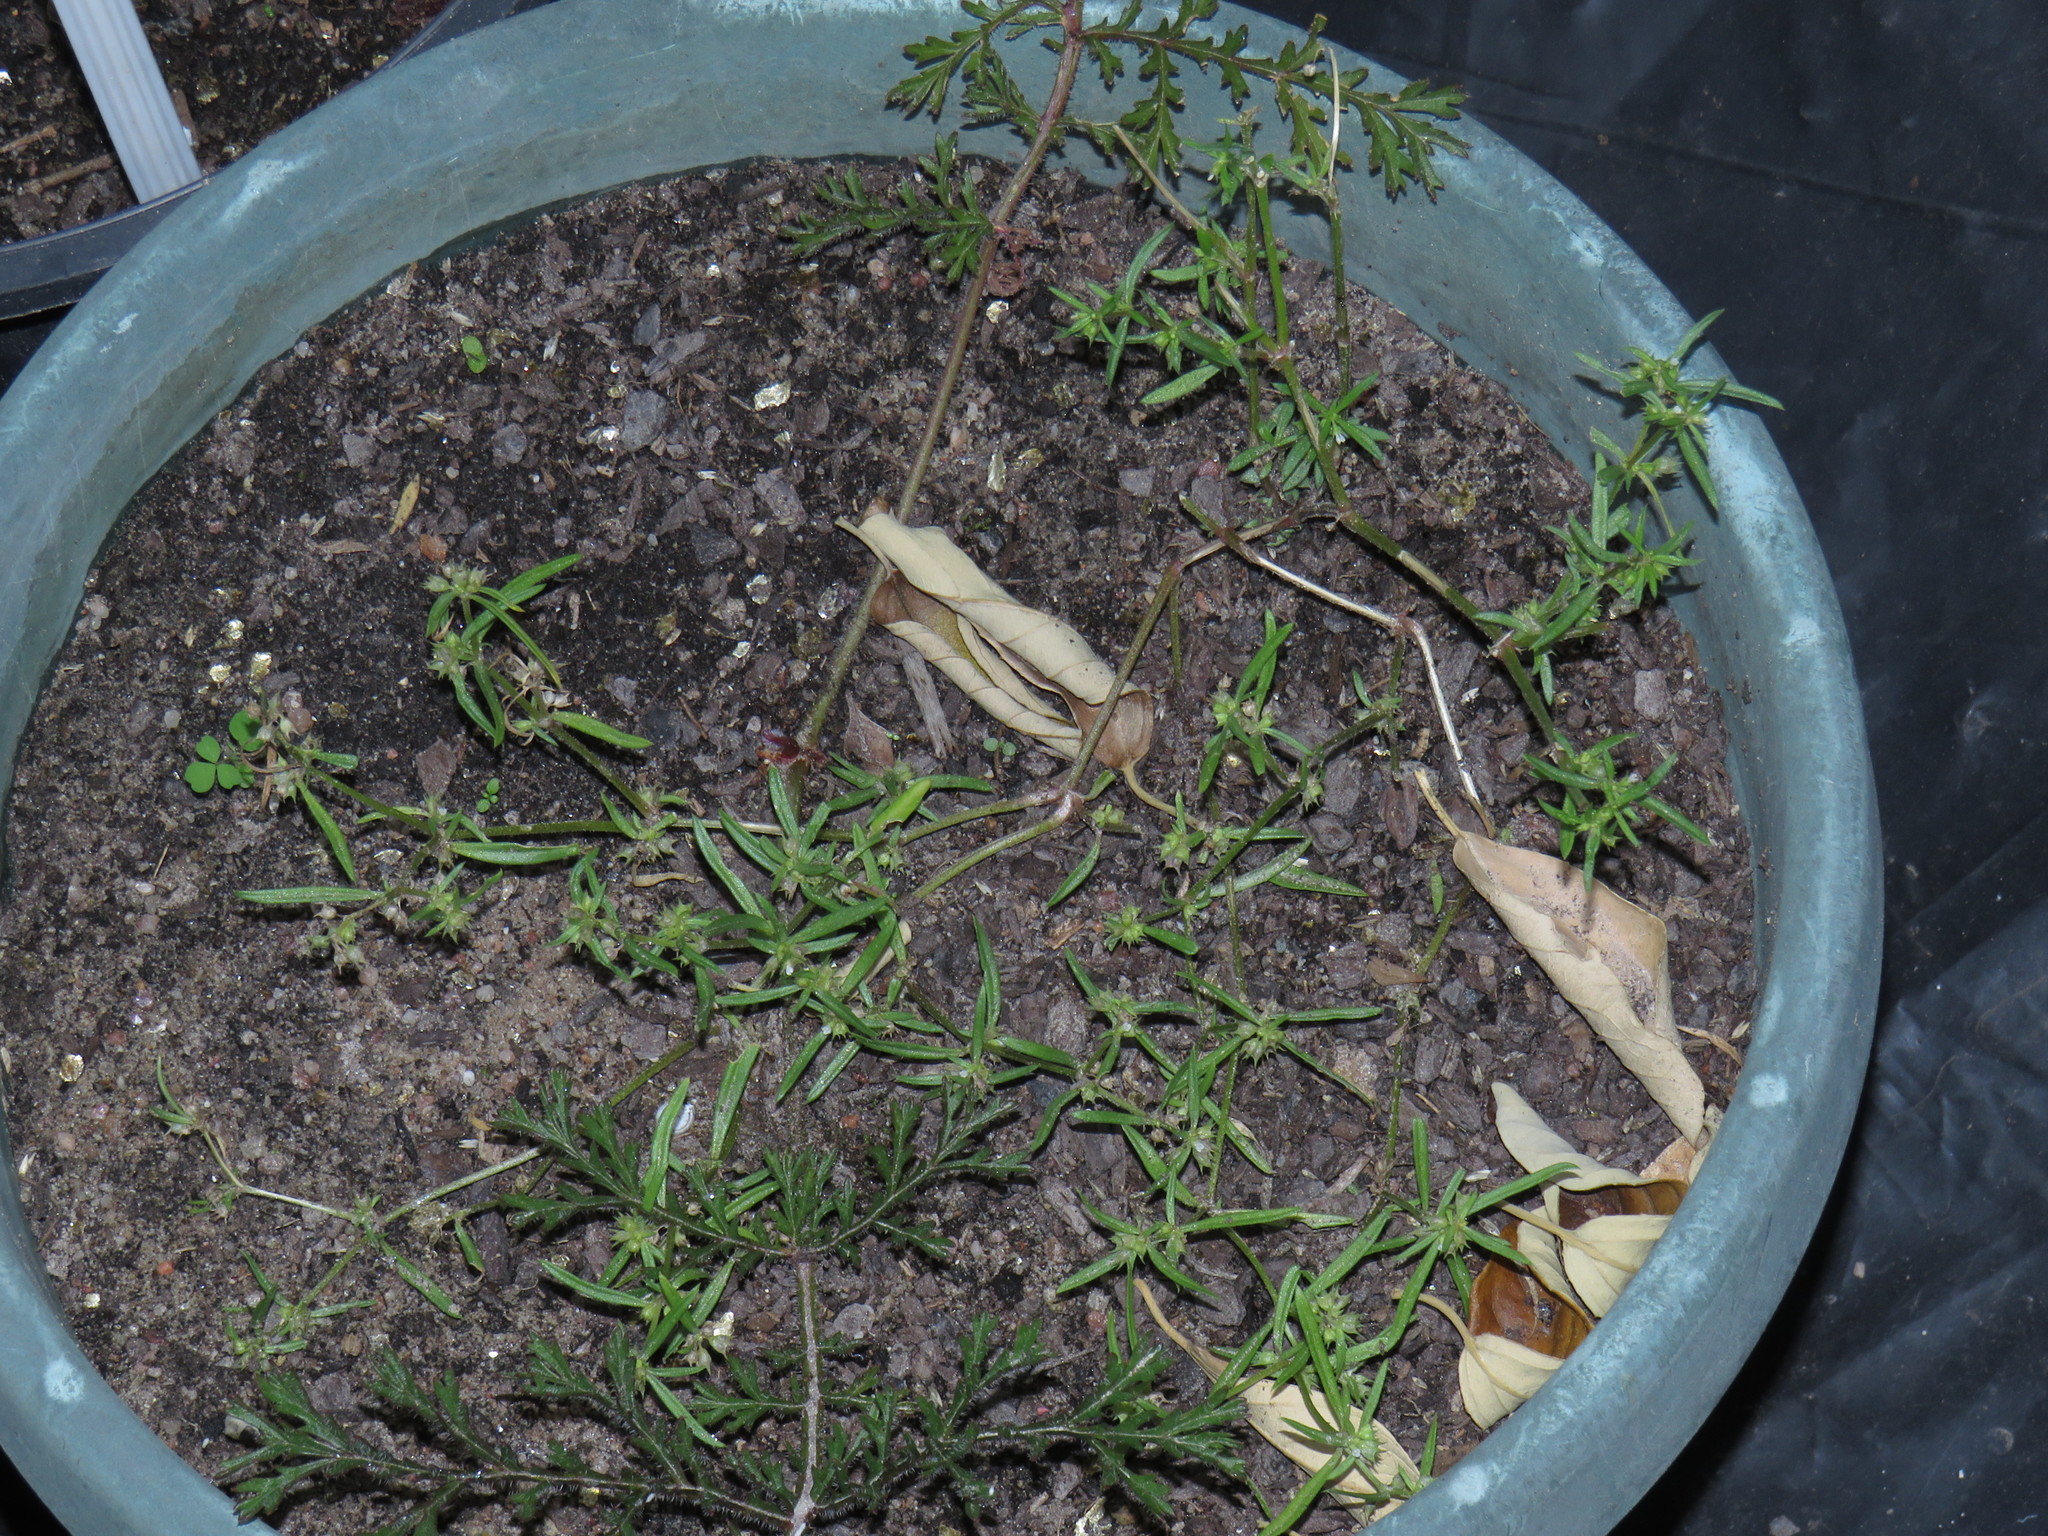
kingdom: Plantae
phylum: Tracheophyta
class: Magnoliopsida
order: Gentianales
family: Rubiaceae
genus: Oldenlandia
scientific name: Oldenlandia capensis
